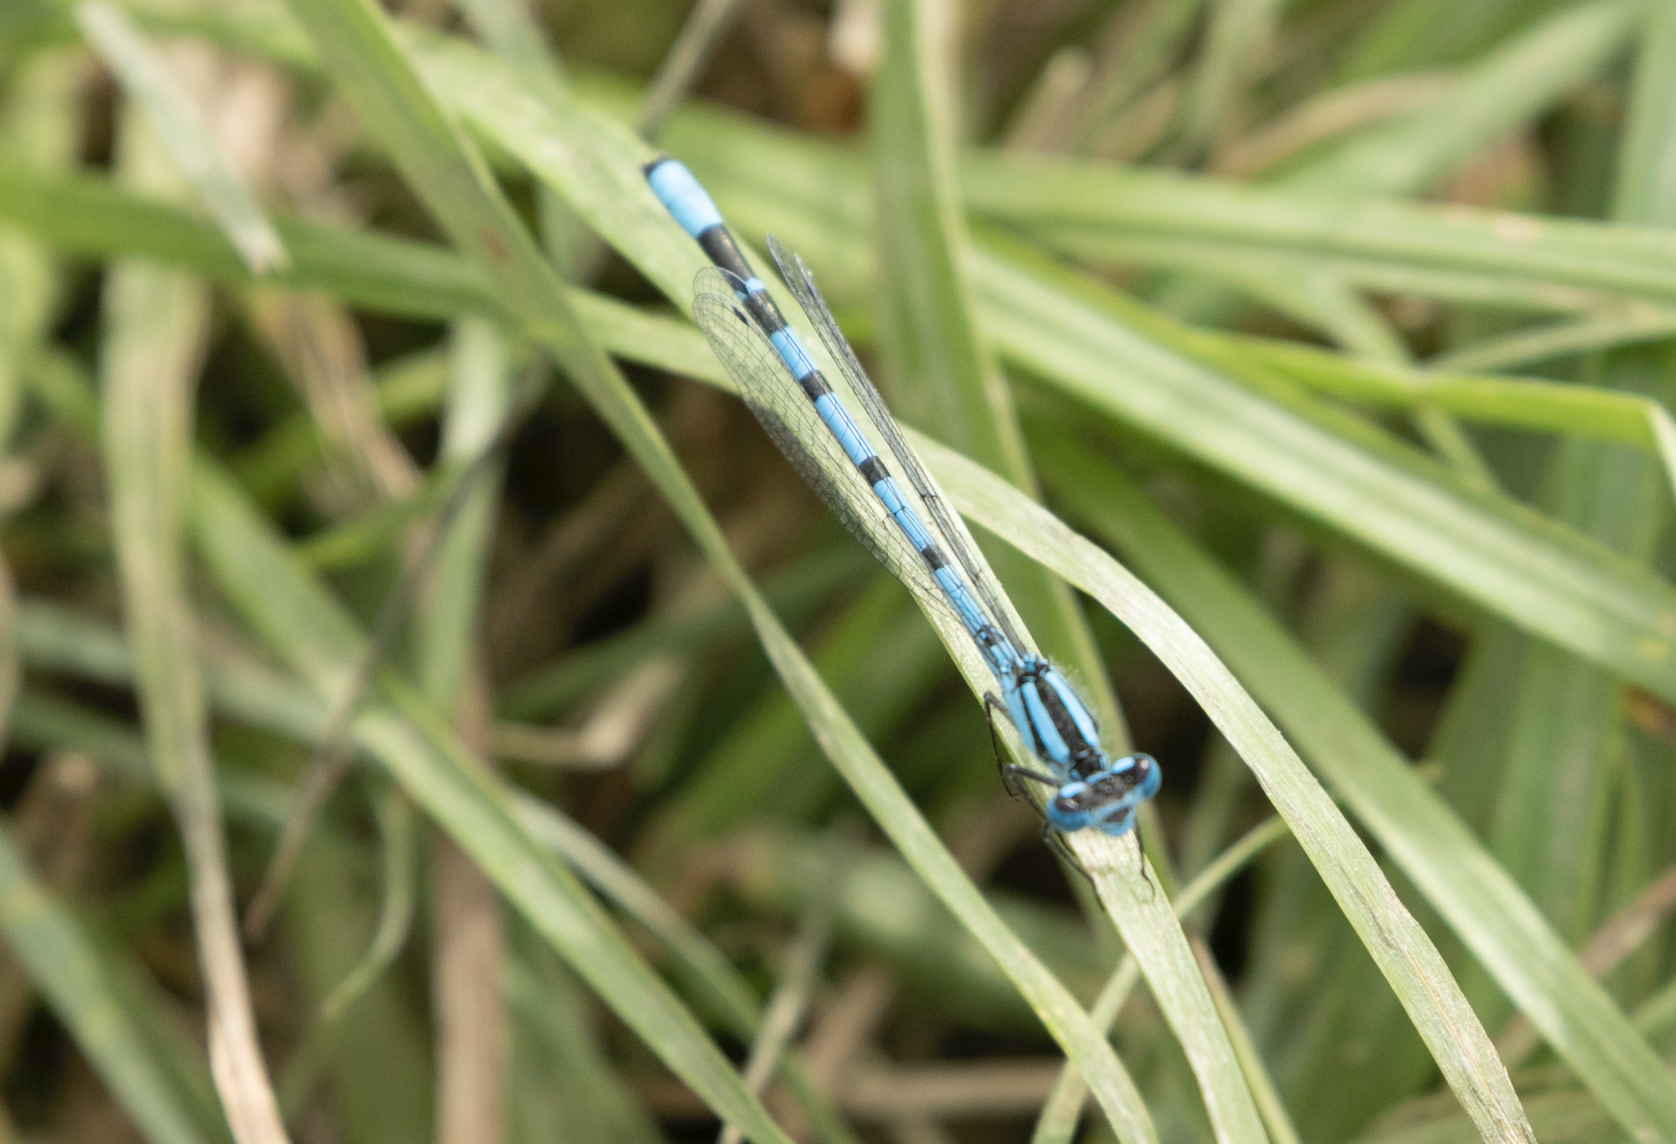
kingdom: Animalia
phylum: Arthropoda
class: Insecta
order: Odonata
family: Coenagrionidae
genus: Enallagma
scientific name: Enallagma cyathigerum
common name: Common blue damselfly
